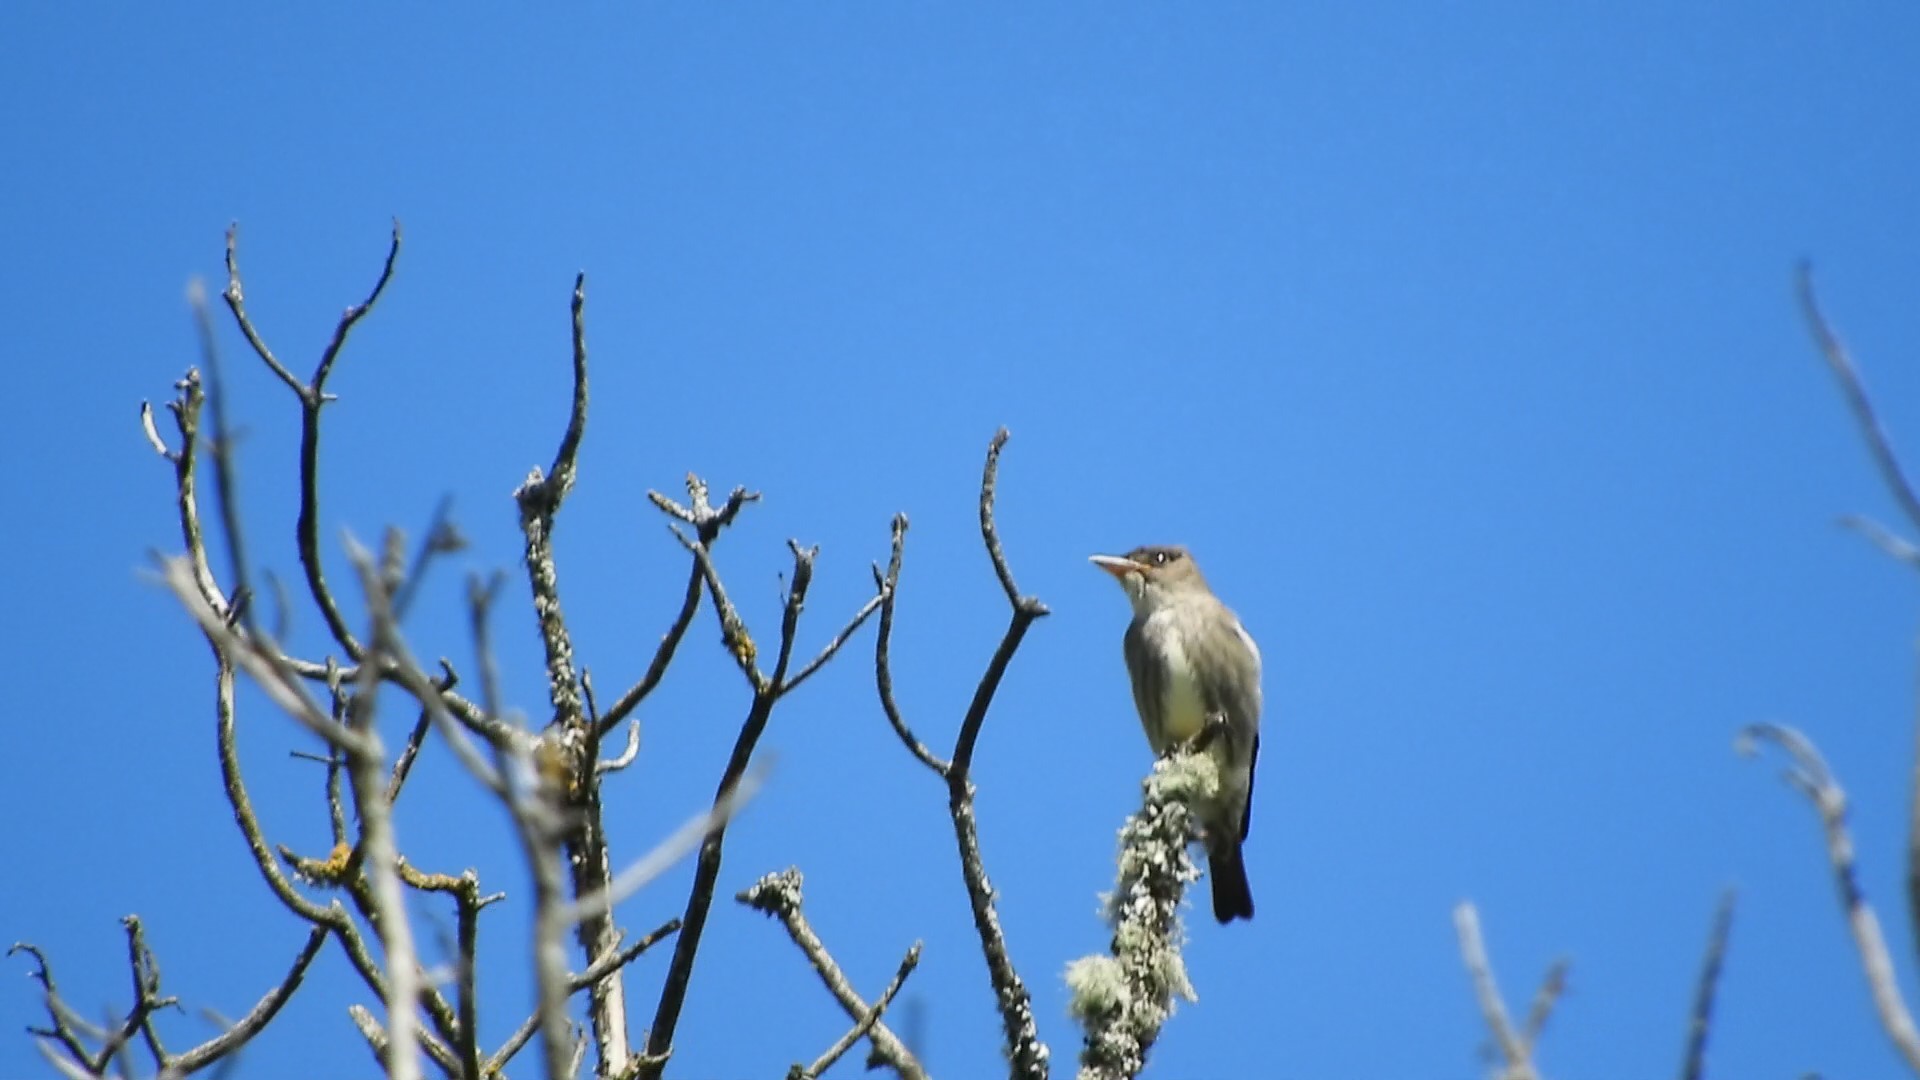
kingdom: Animalia
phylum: Chordata
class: Aves
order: Passeriformes
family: Tyrannidae
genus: Contopus
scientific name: Contopus cooperi
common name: Olive-sided flycatcher
